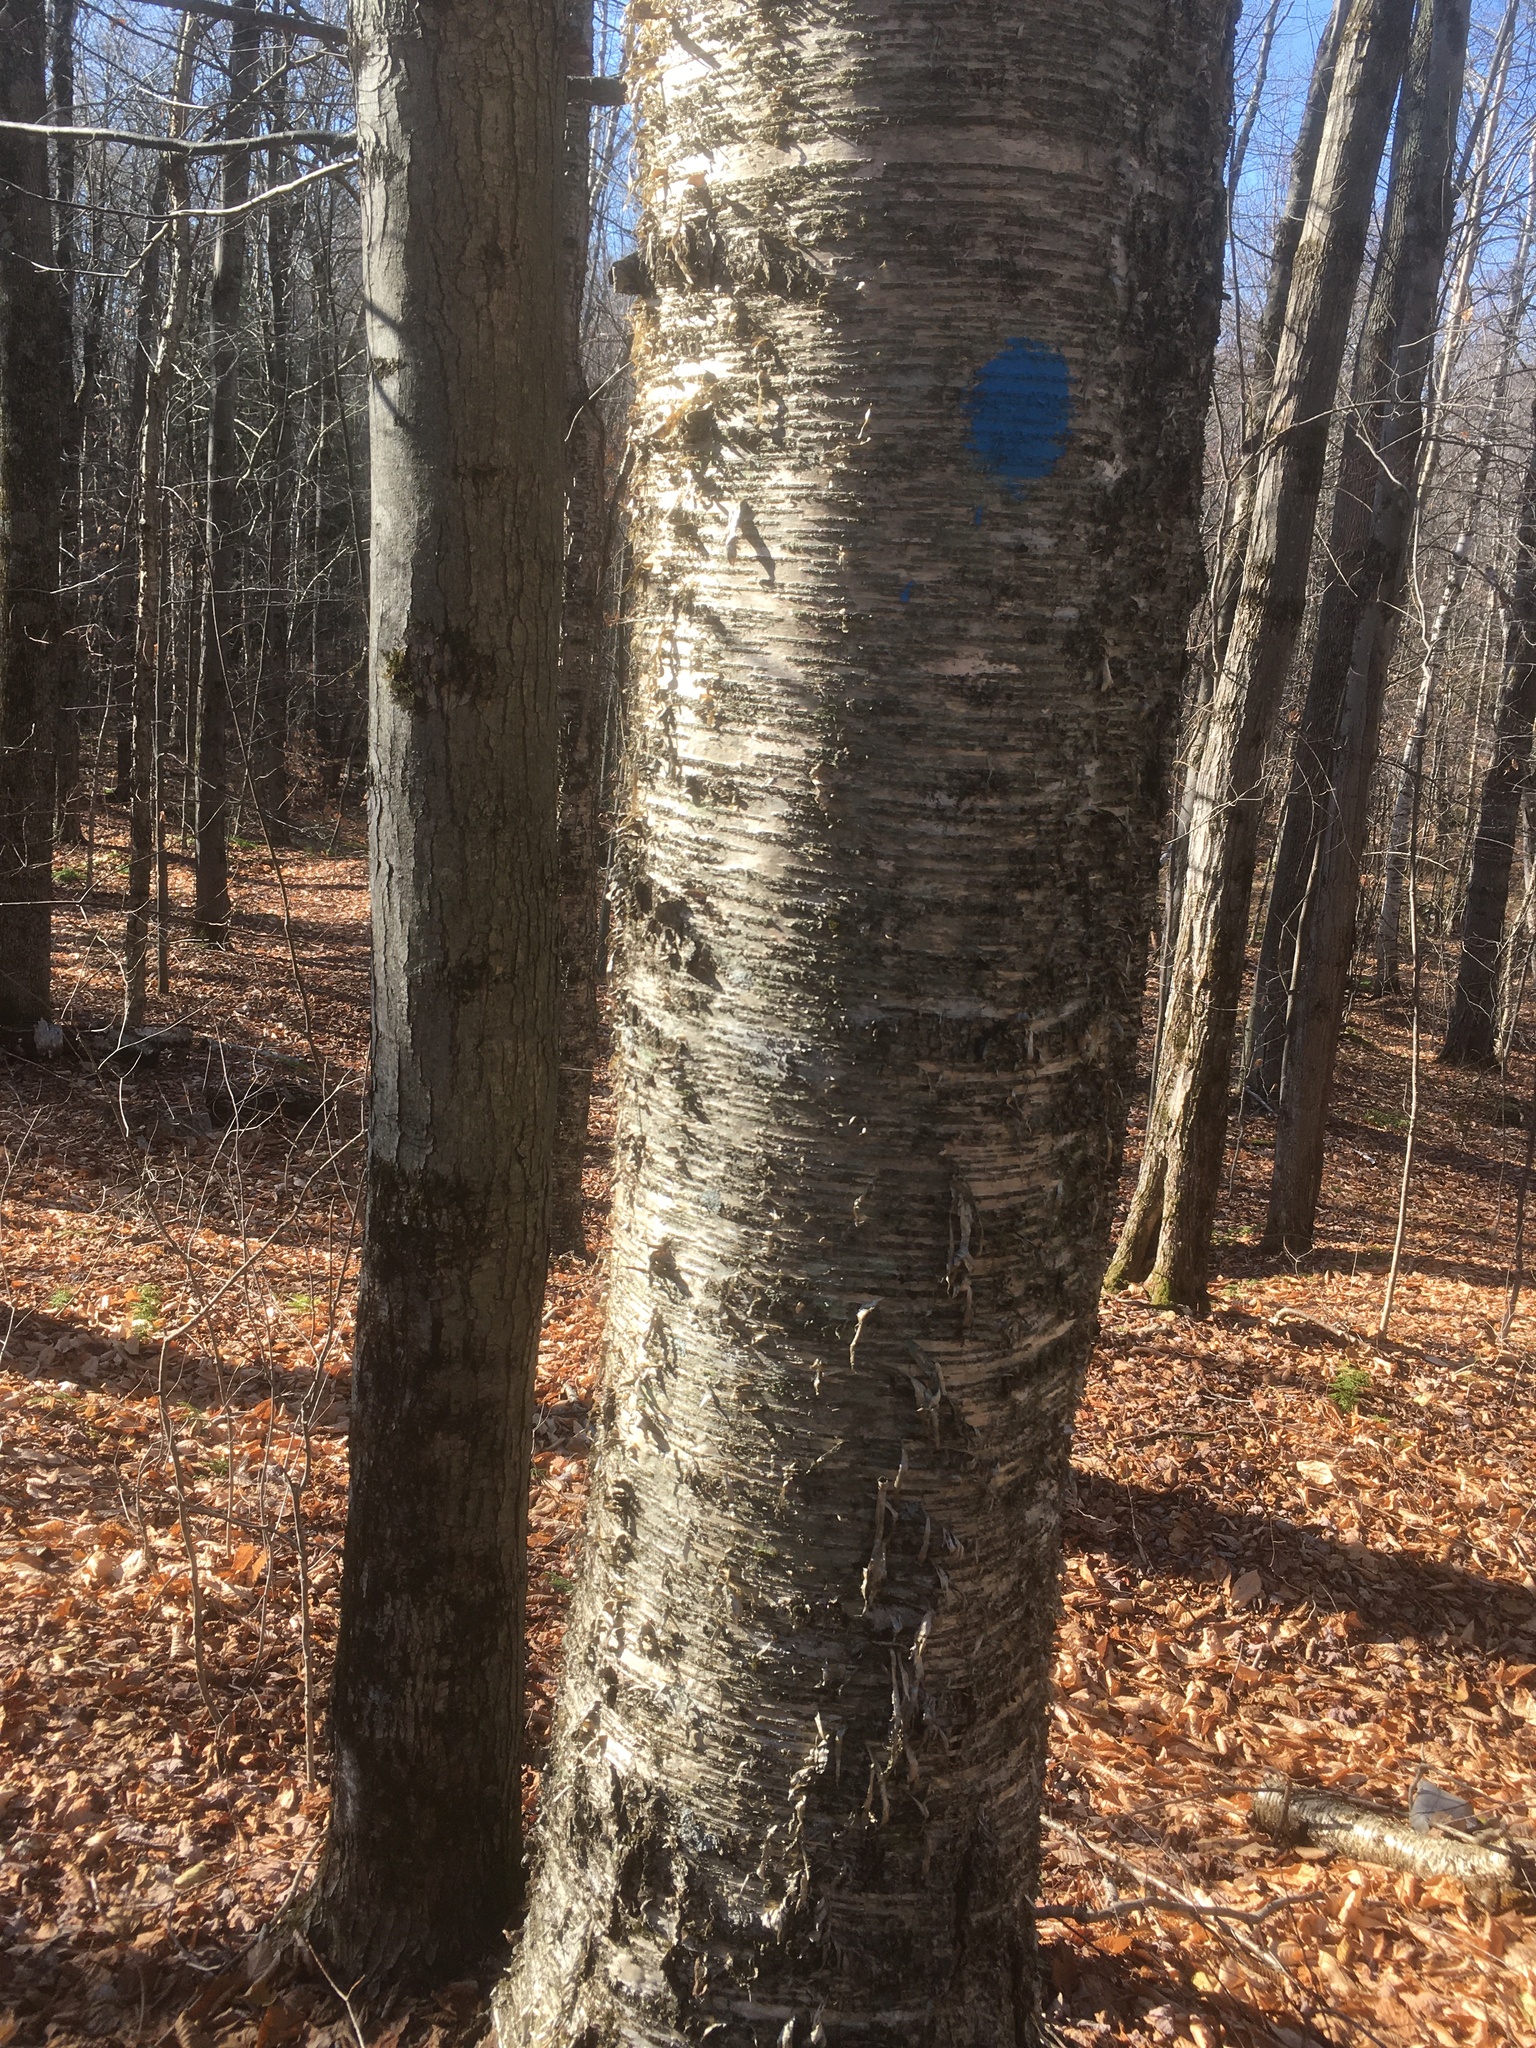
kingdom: Plantae
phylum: Tracheophyta
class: Magnoliopsida
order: Fagales
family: Betulaceae
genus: Betula
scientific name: Betula alleghaniensis
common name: Yellow birch
